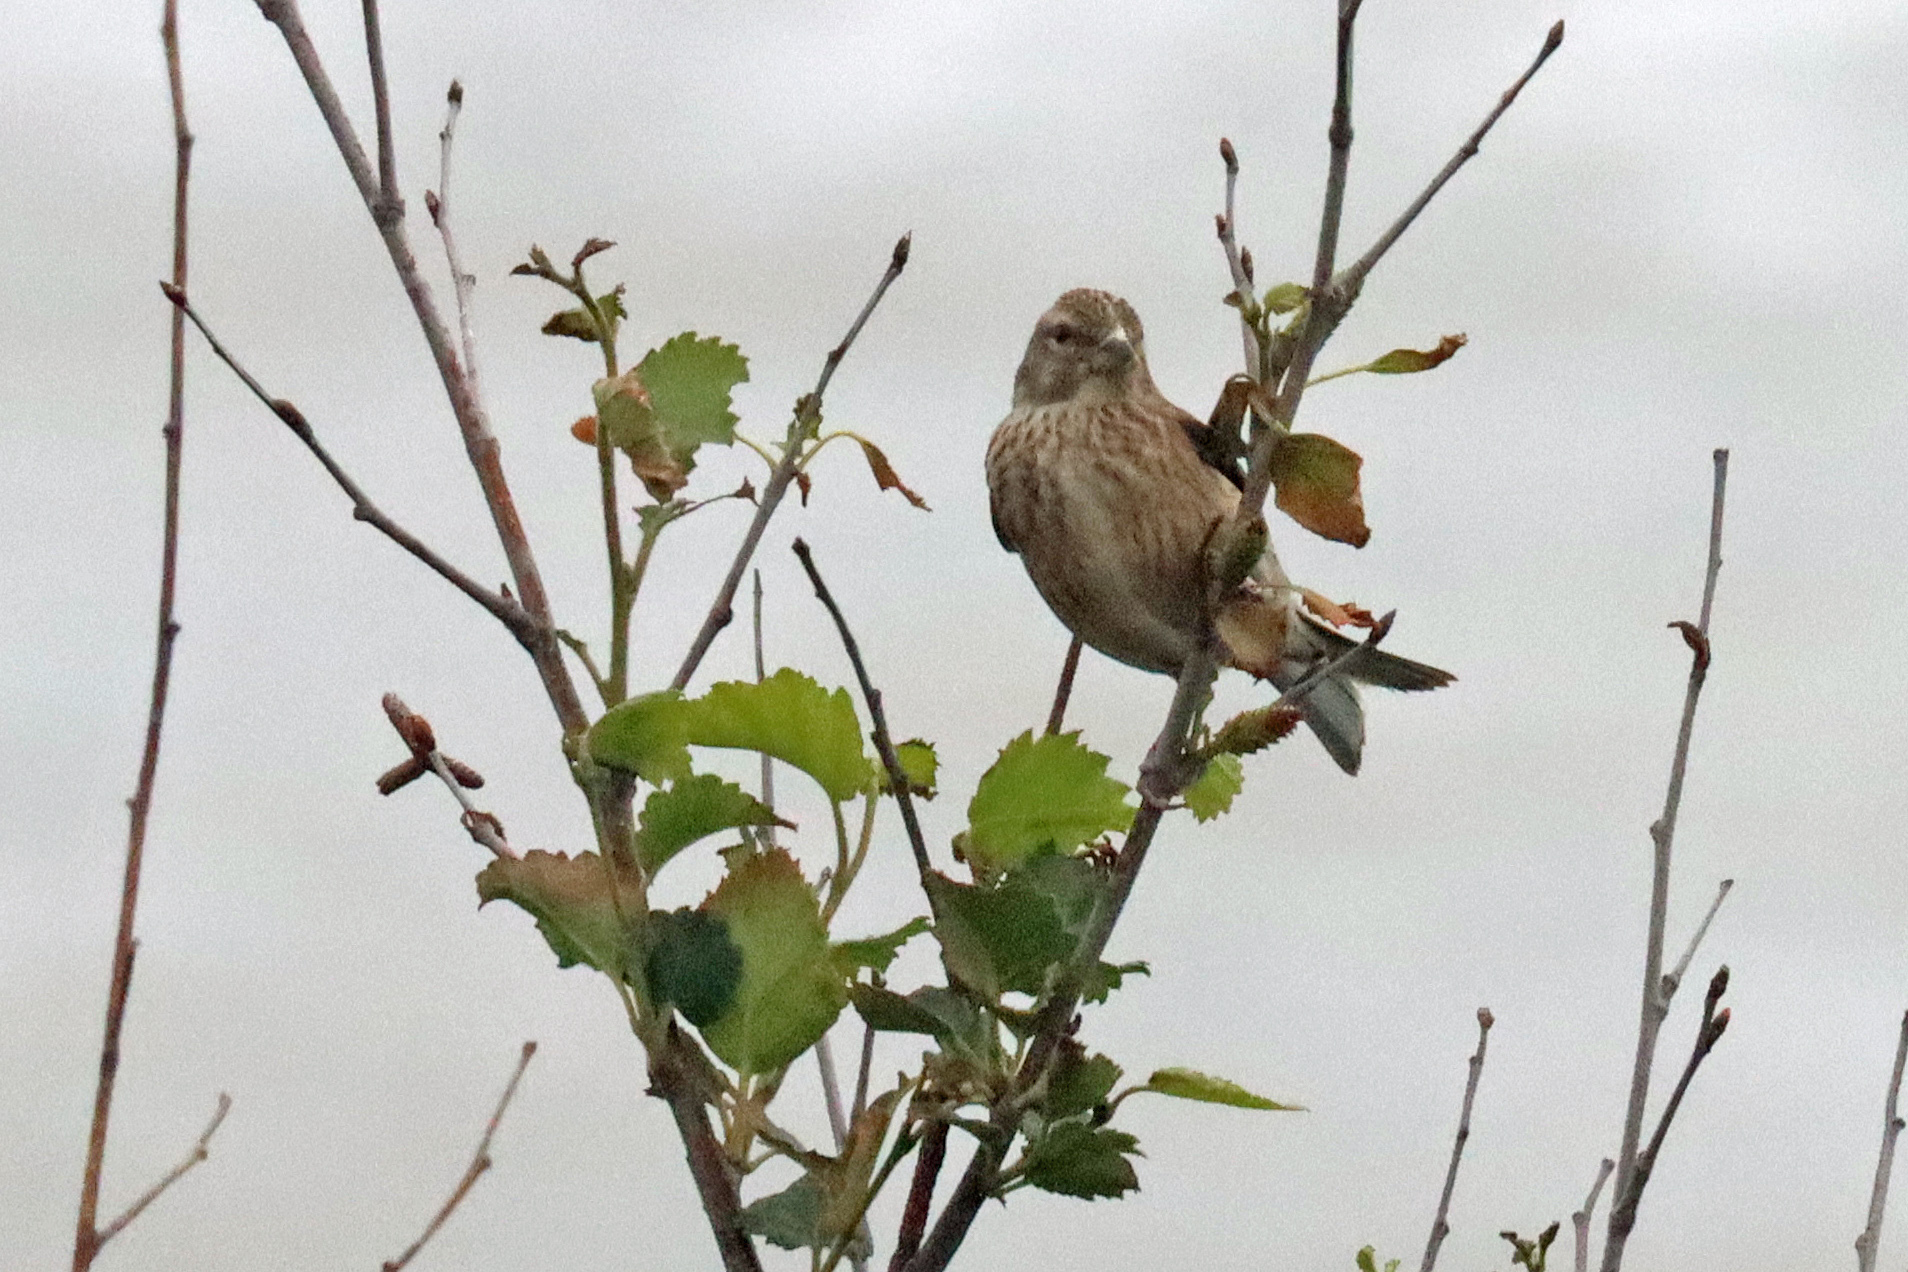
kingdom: Animalia
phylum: Chordata
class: Aves
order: Passeriformes
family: Fringillidae
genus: Linaria
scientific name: Linaria cannabina
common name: Common linnet
